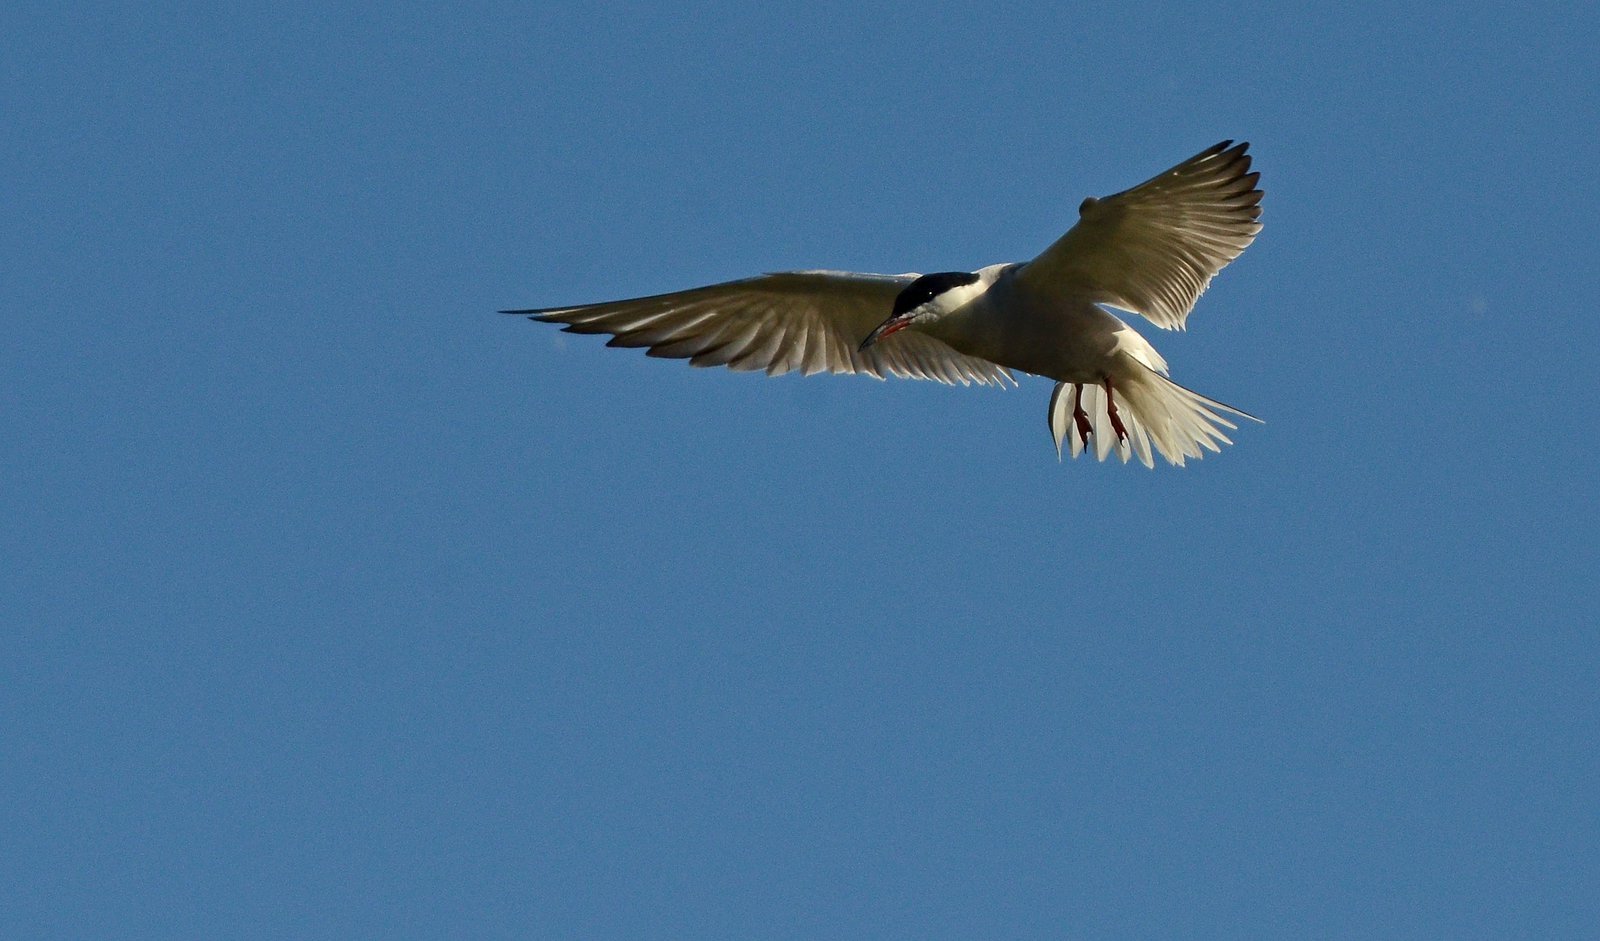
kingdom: Animalia
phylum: Chordata
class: Aves
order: Charadriiformes
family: Laridae
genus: Sterna
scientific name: Sterna hirundo
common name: Common tern
